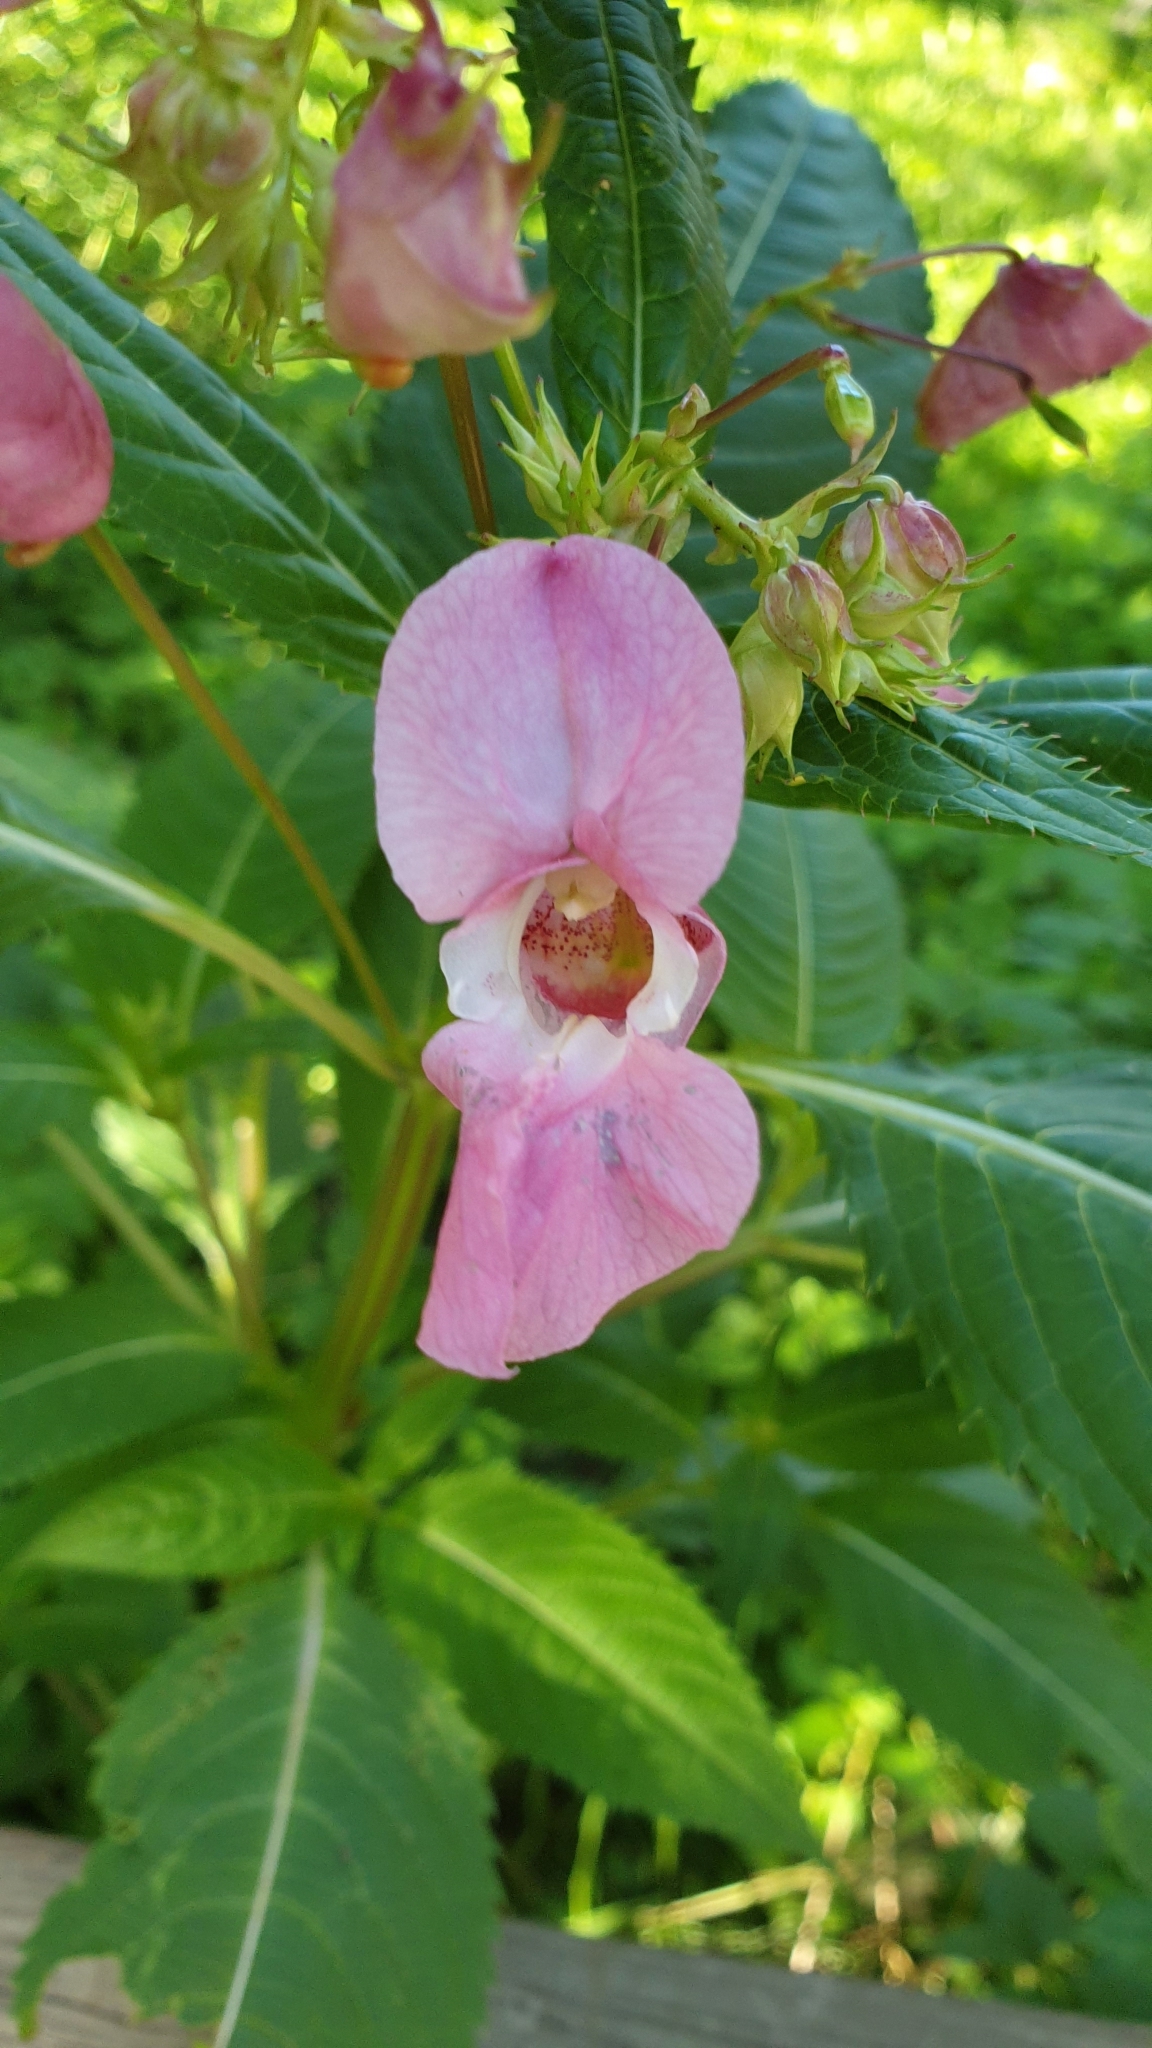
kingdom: Plantae
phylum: Tracheophyta
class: Magnoliopsida
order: Ericales
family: Balsaminaceae
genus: Impatiens
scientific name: Impatiens glandulifera
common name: Himalayan balsam
